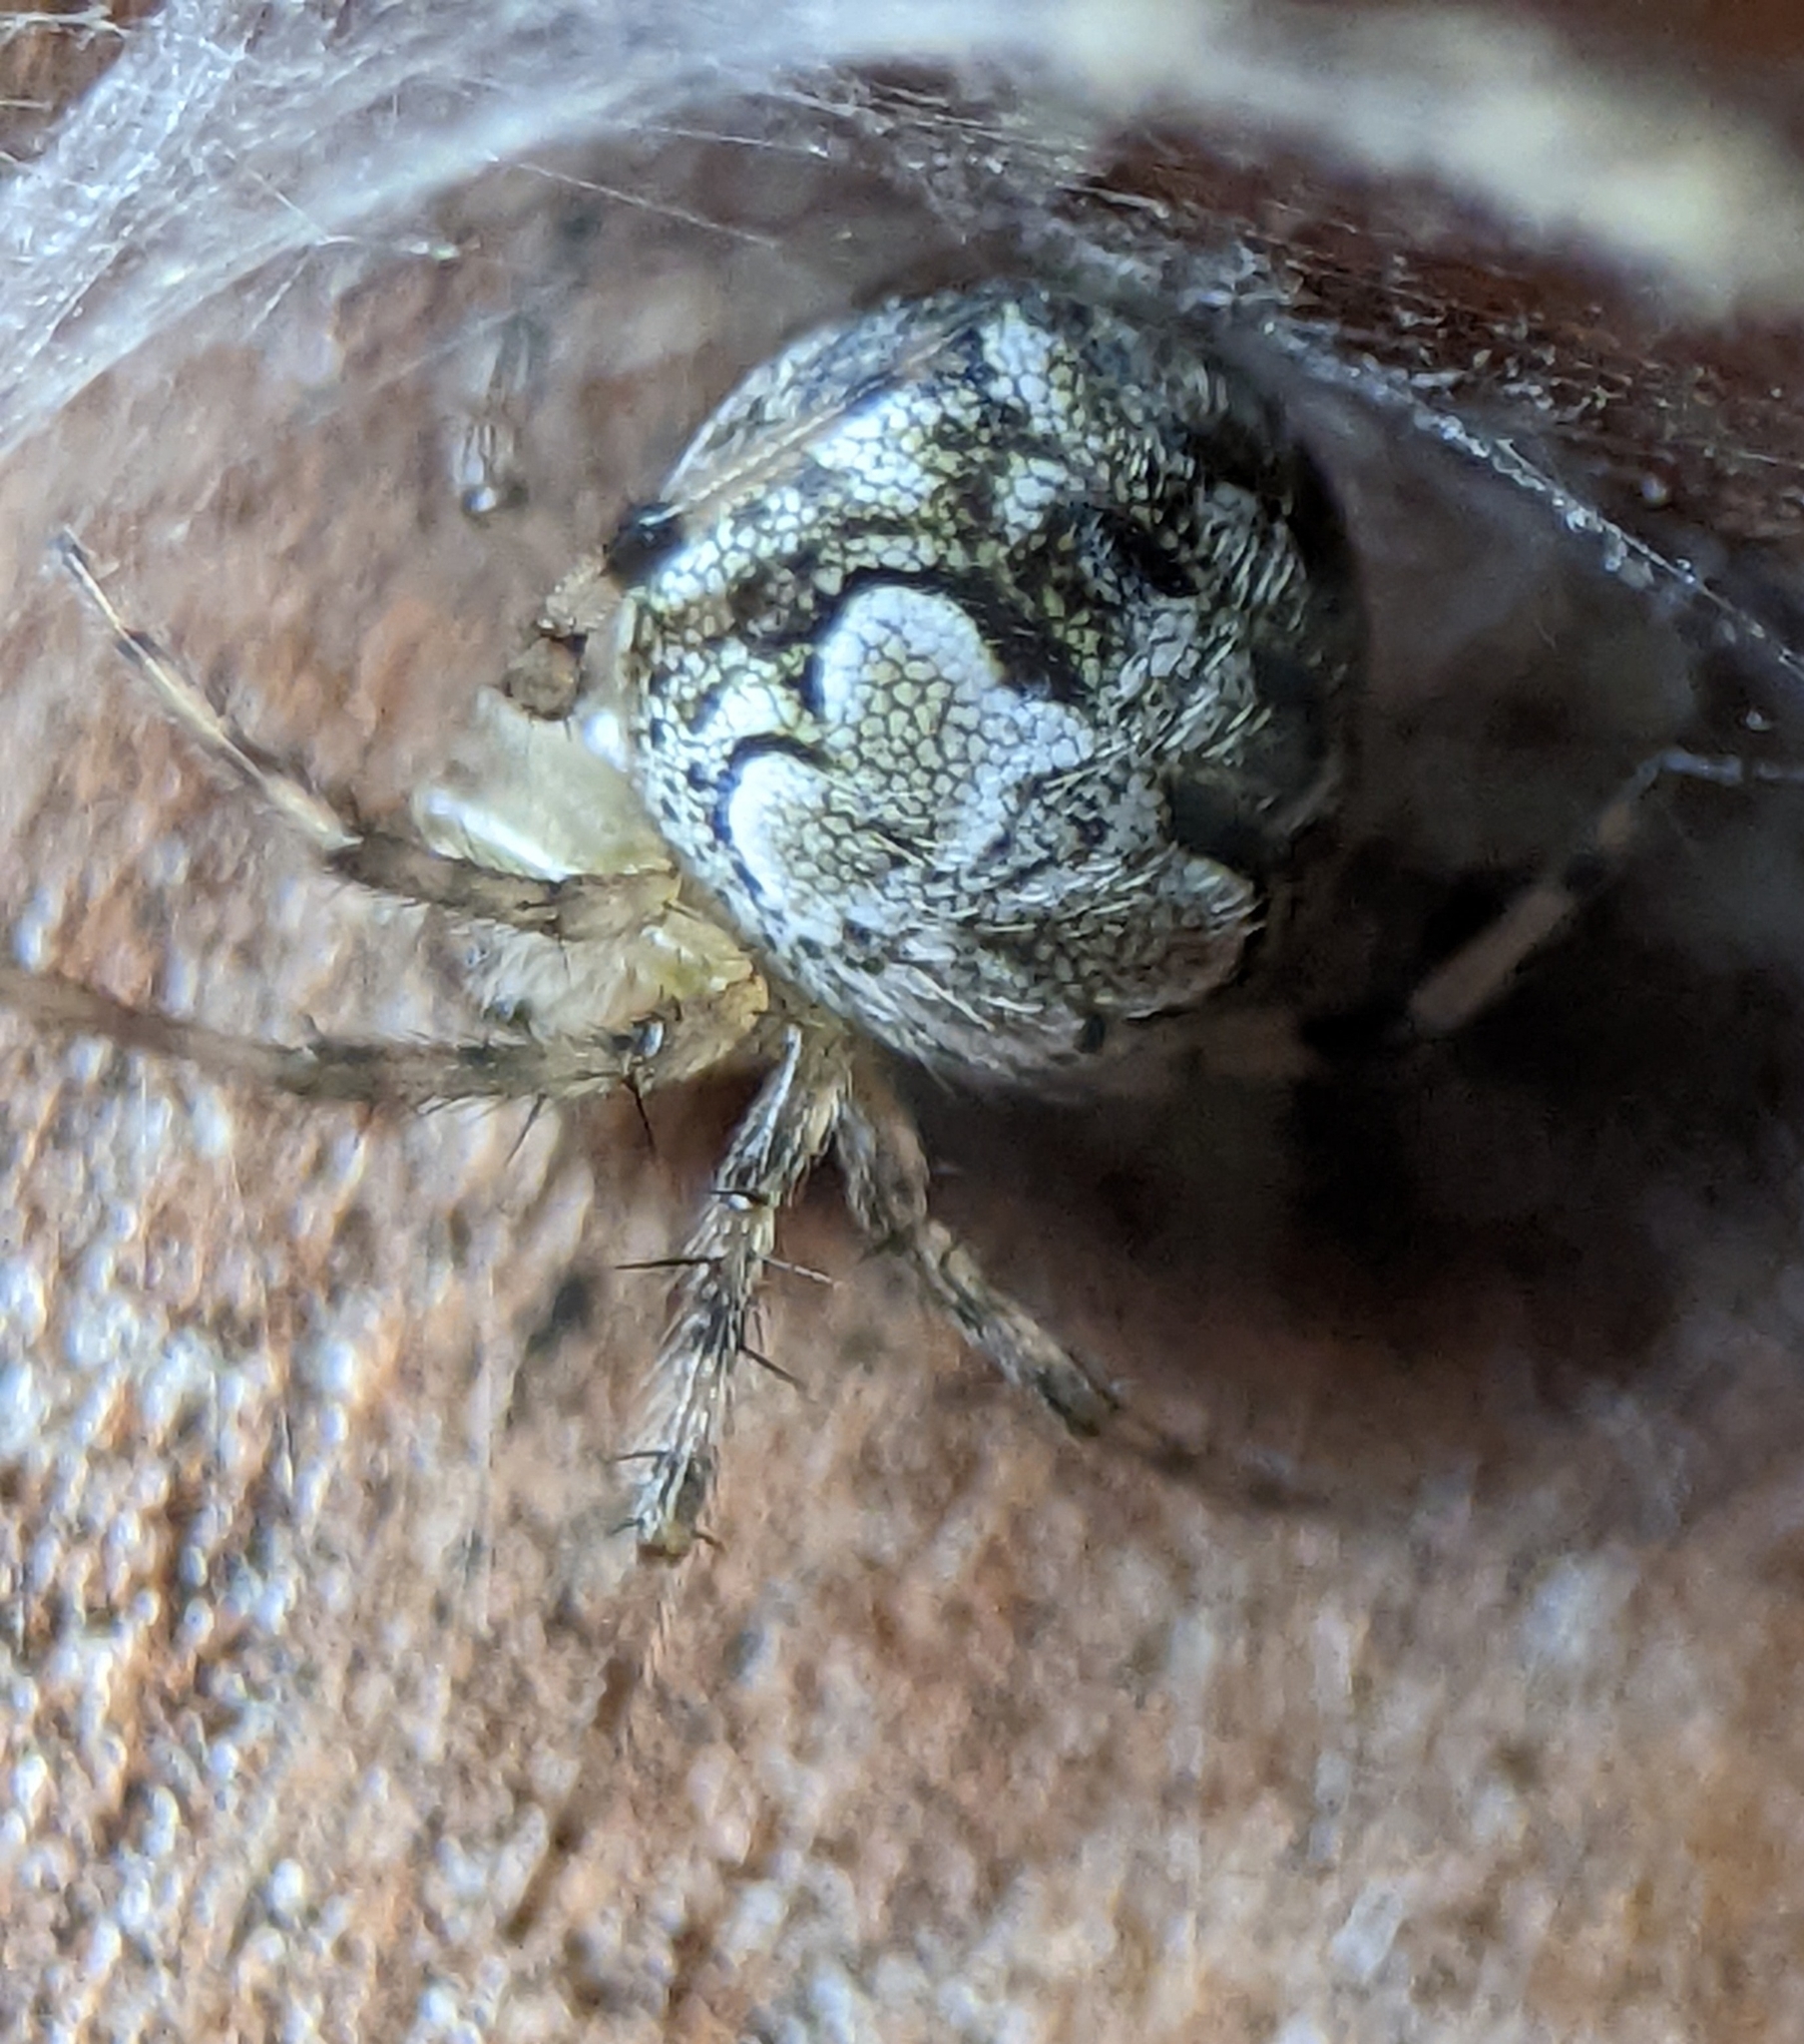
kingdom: Animalia
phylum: Arthropoda
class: Arachnida
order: Araneae
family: Araneidae
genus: Araneus
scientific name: Araneus pegnia
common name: Orb weavers
